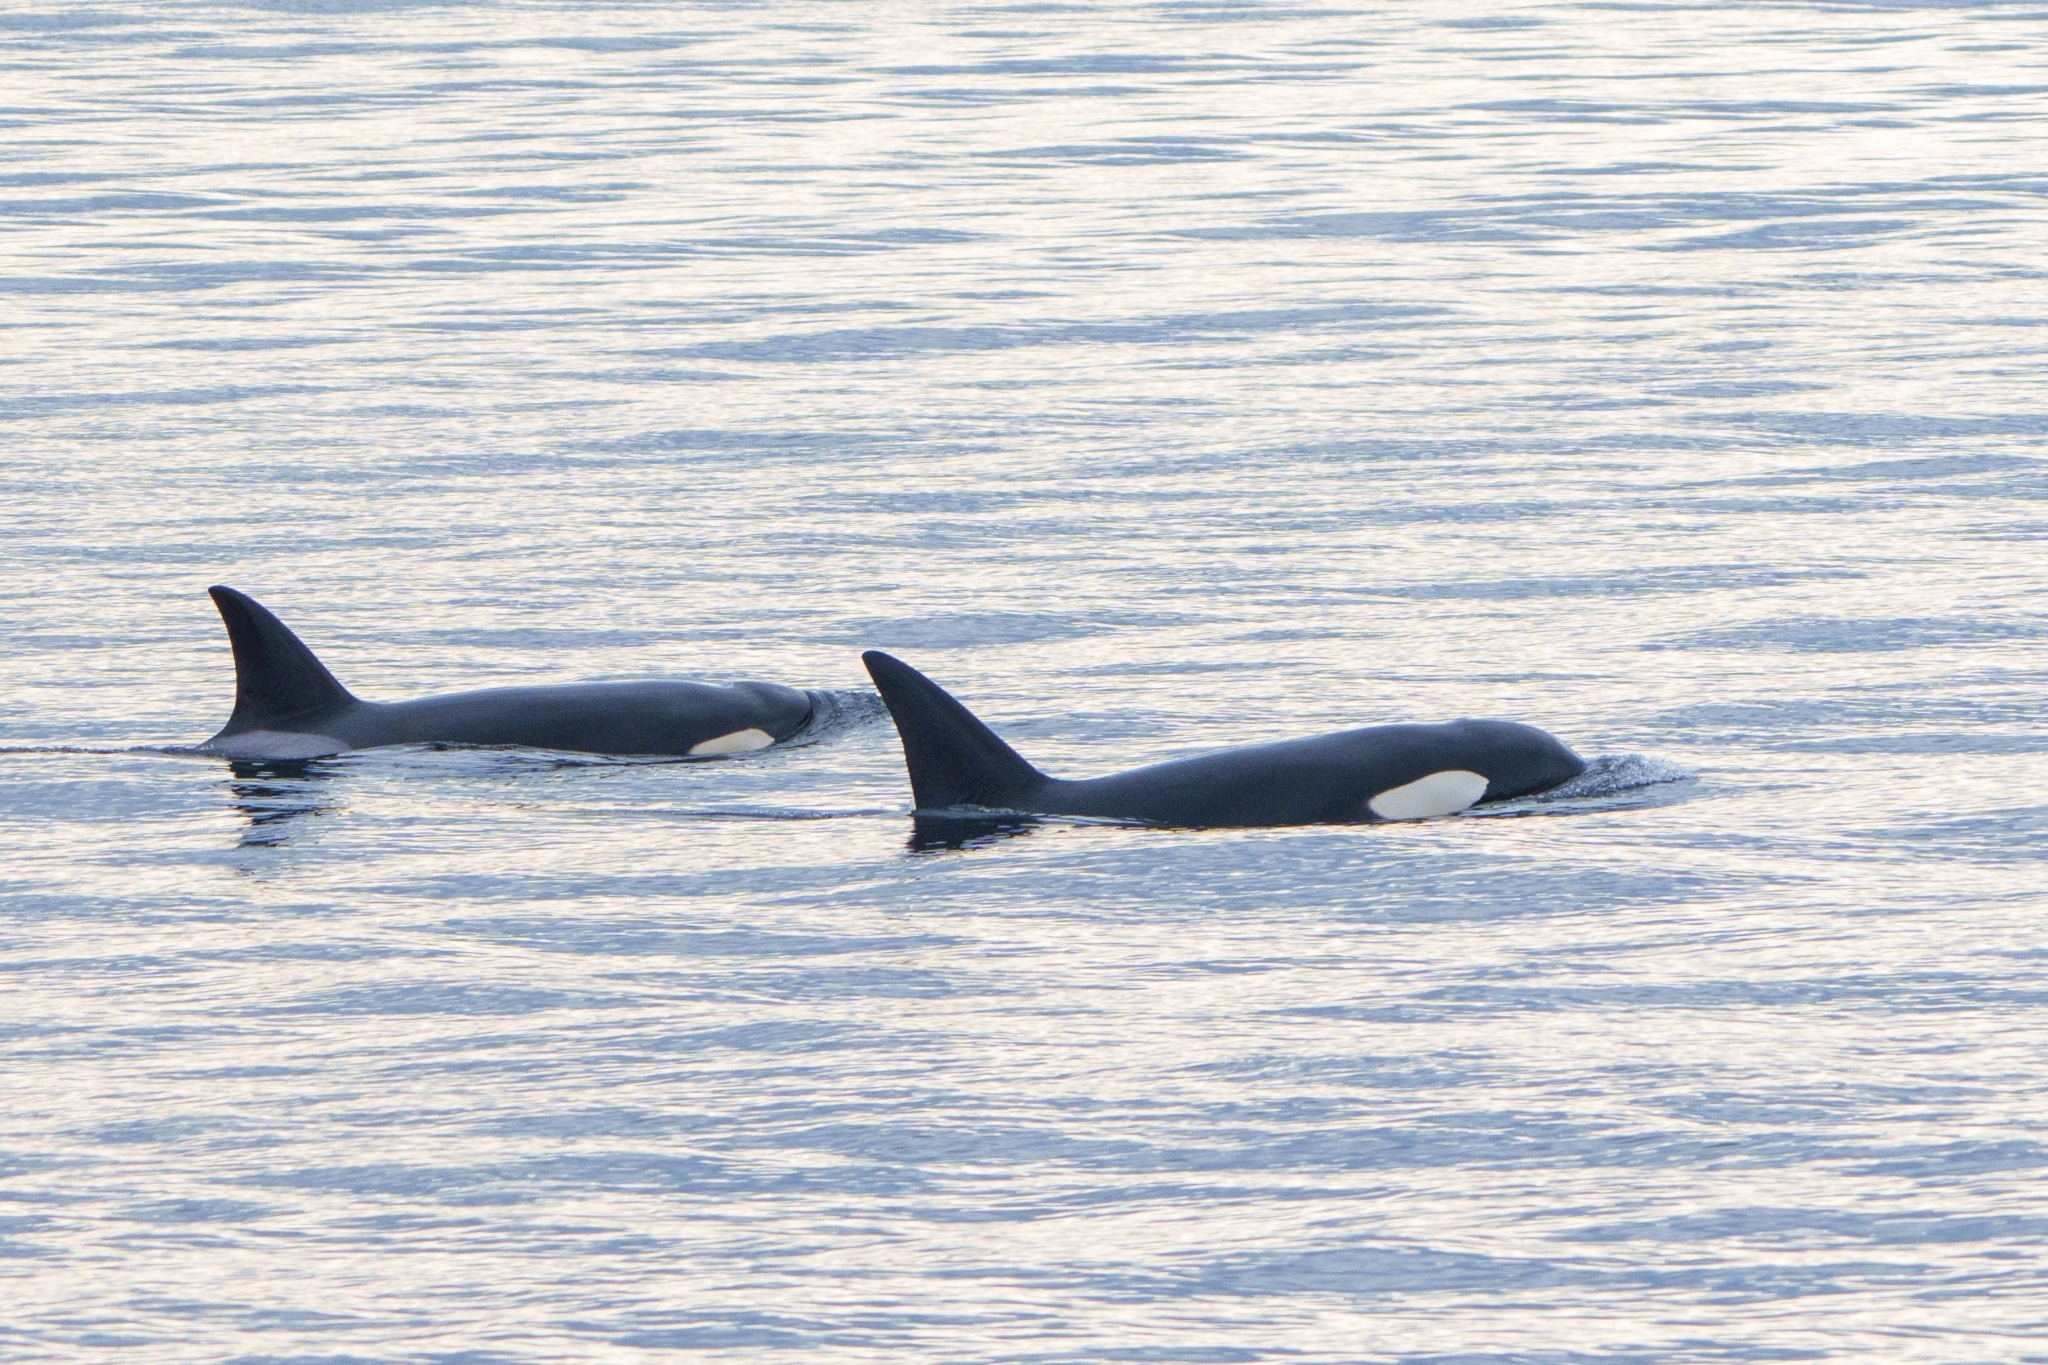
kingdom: Animalia
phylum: Chordata
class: Mammalia
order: Cetacea
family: Delphinidae
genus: Orcinus
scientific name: Orcinus orca
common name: Killer whale
